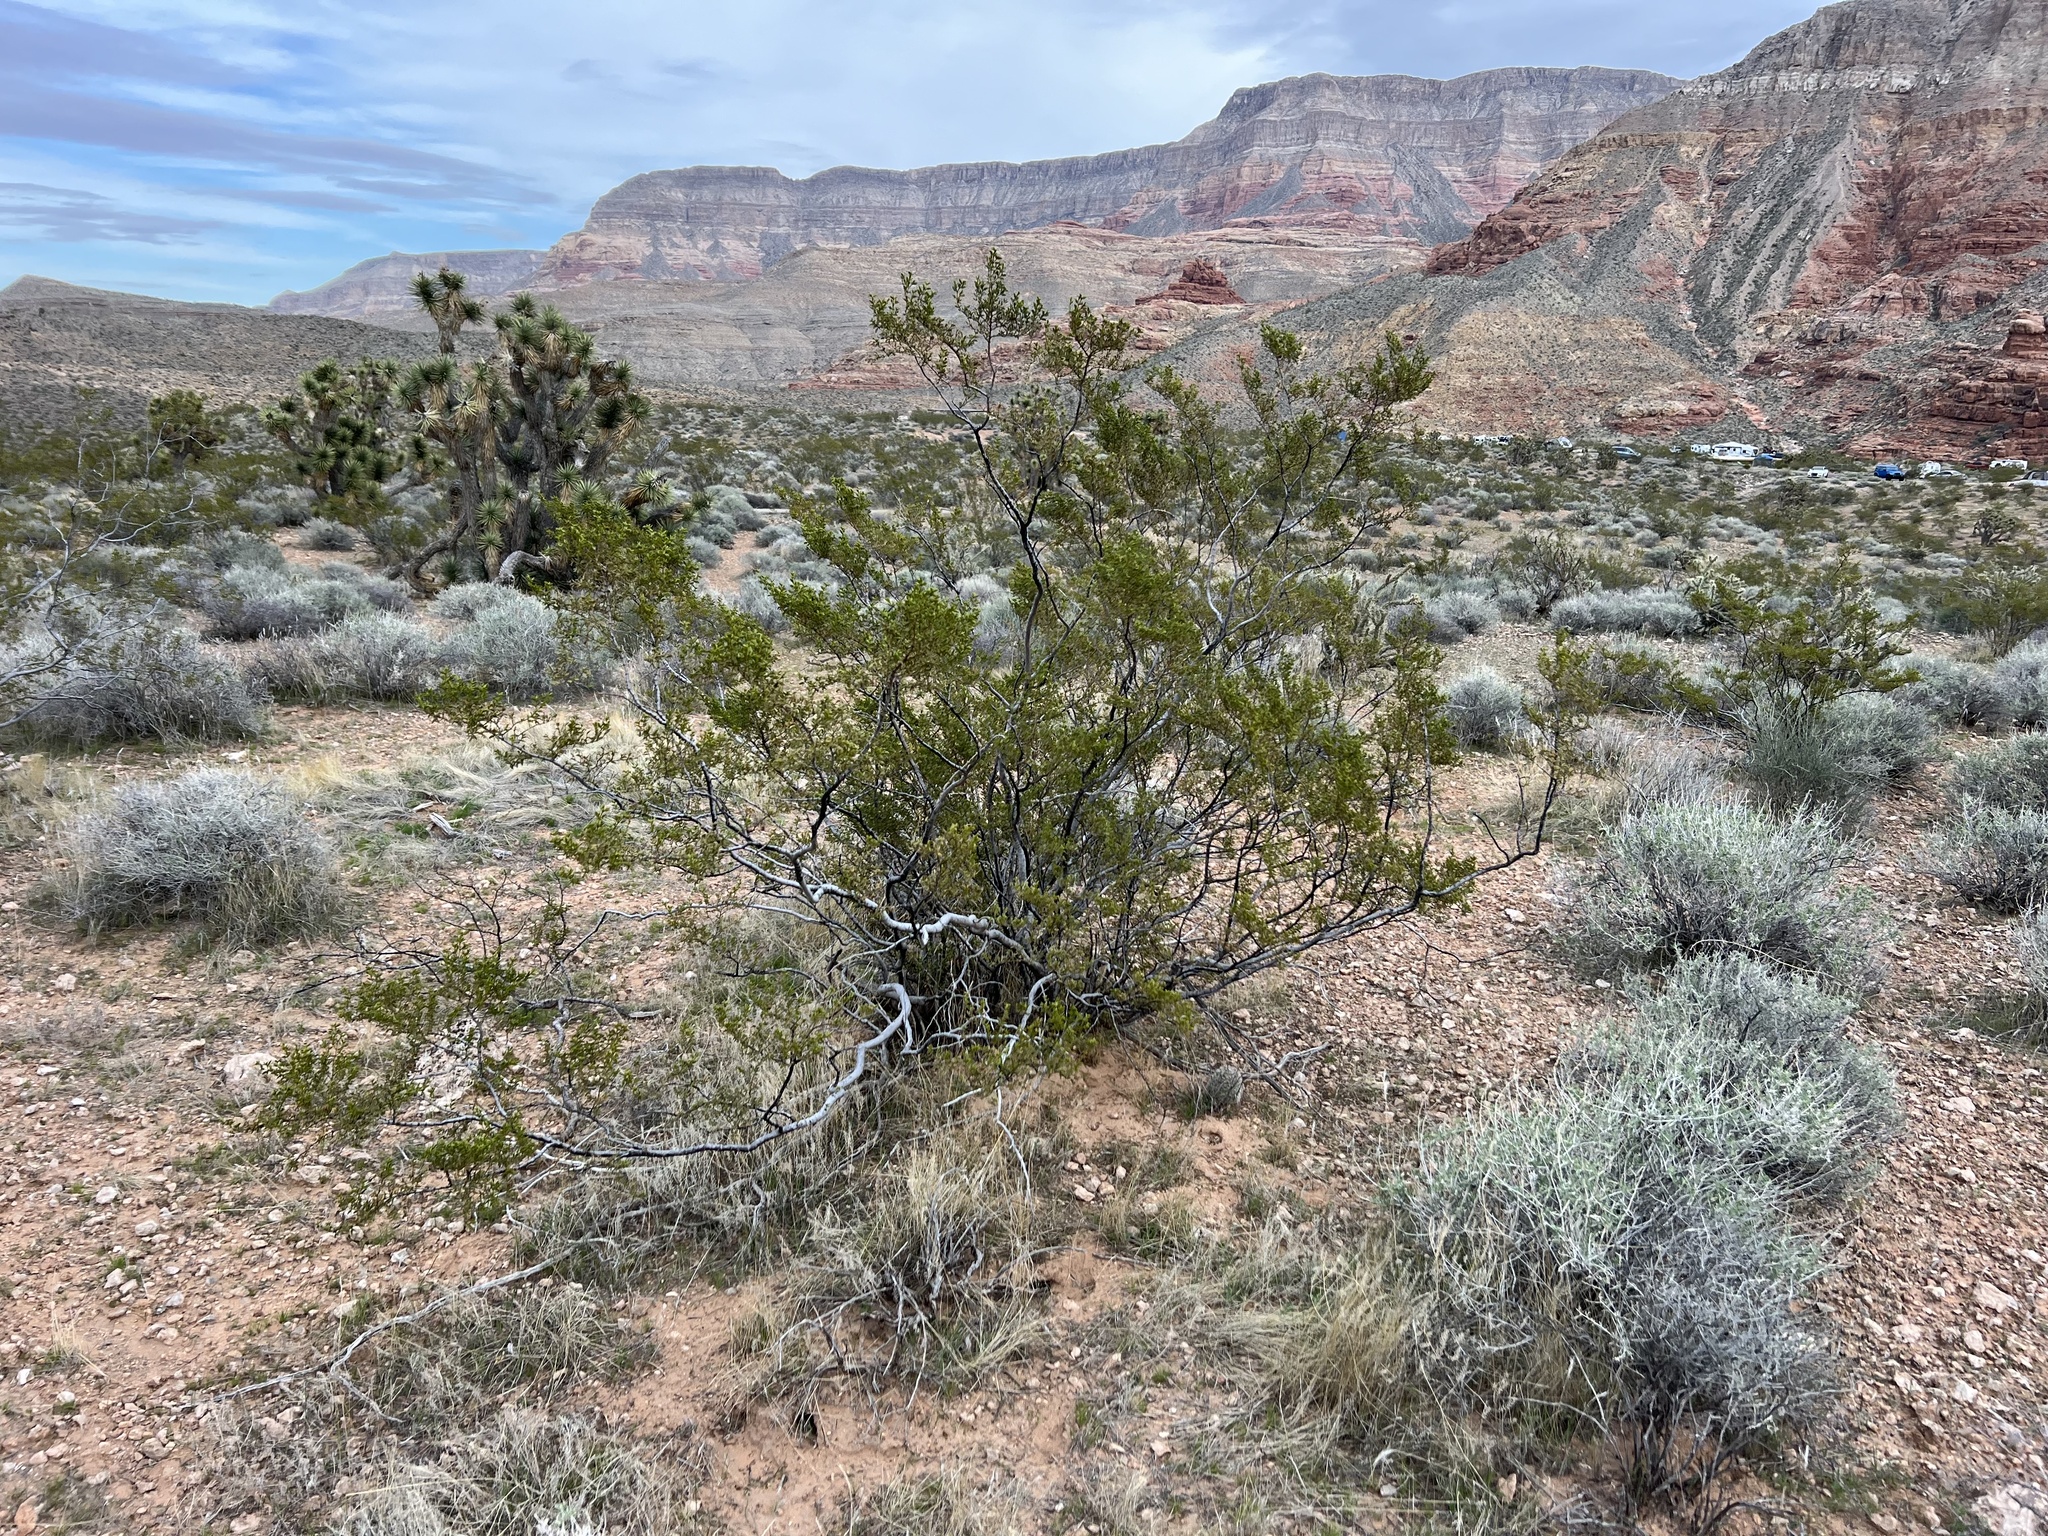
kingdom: Plantae
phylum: Tracheophyta
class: Magnoliopsida
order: Zygophyllales
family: Zygophyllaceae
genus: Larrea
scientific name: Larrea tridentata
